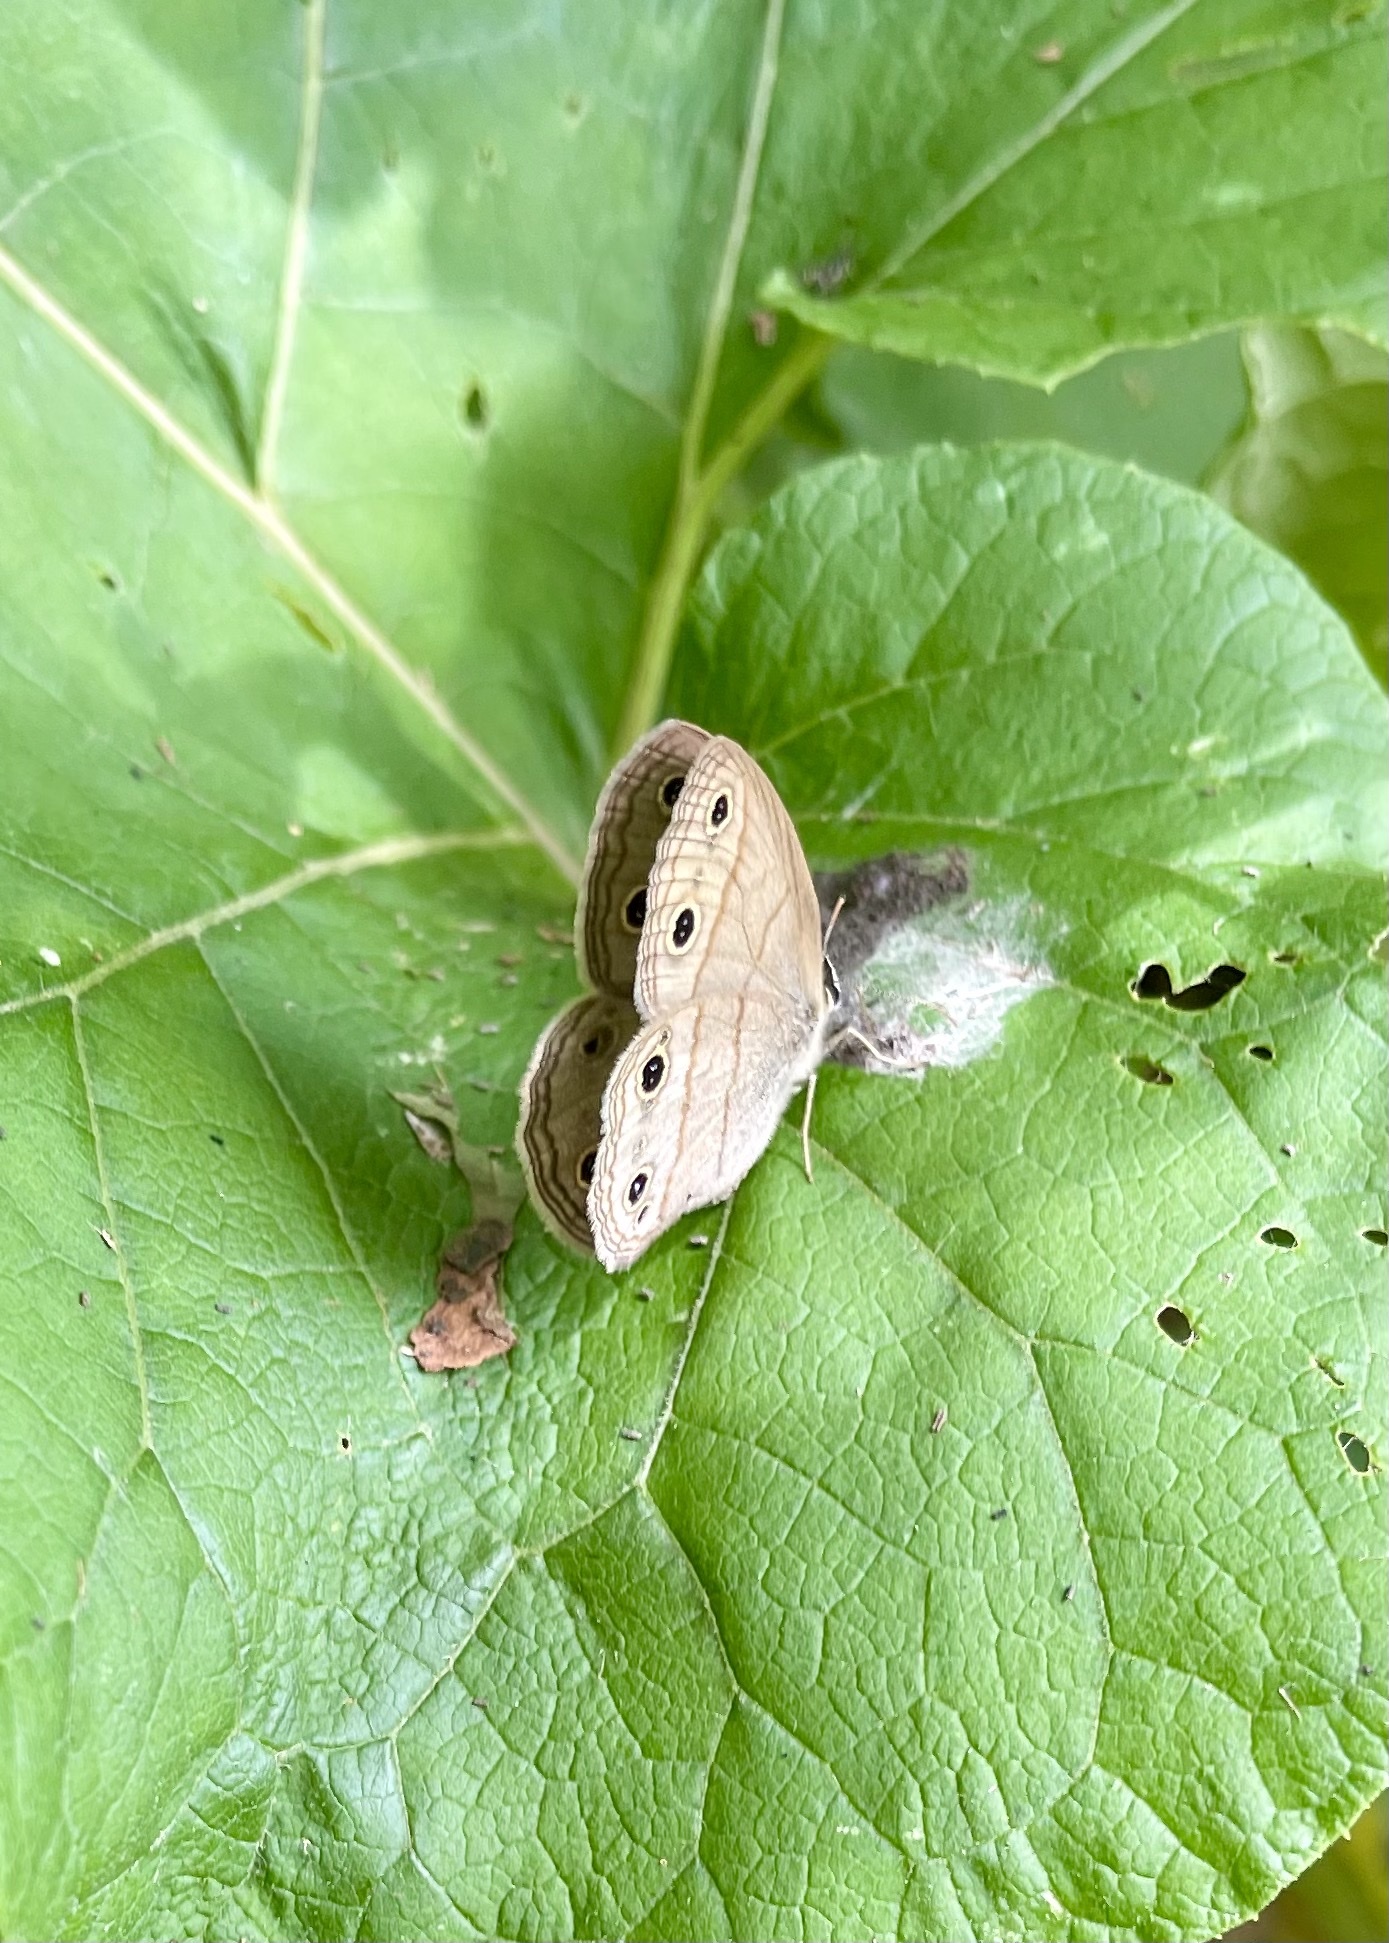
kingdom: Animalia
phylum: Arthropoda
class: Insecta
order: Lepidoptera
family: Nymphalidae
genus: Euptychia
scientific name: Euptychia cymela
